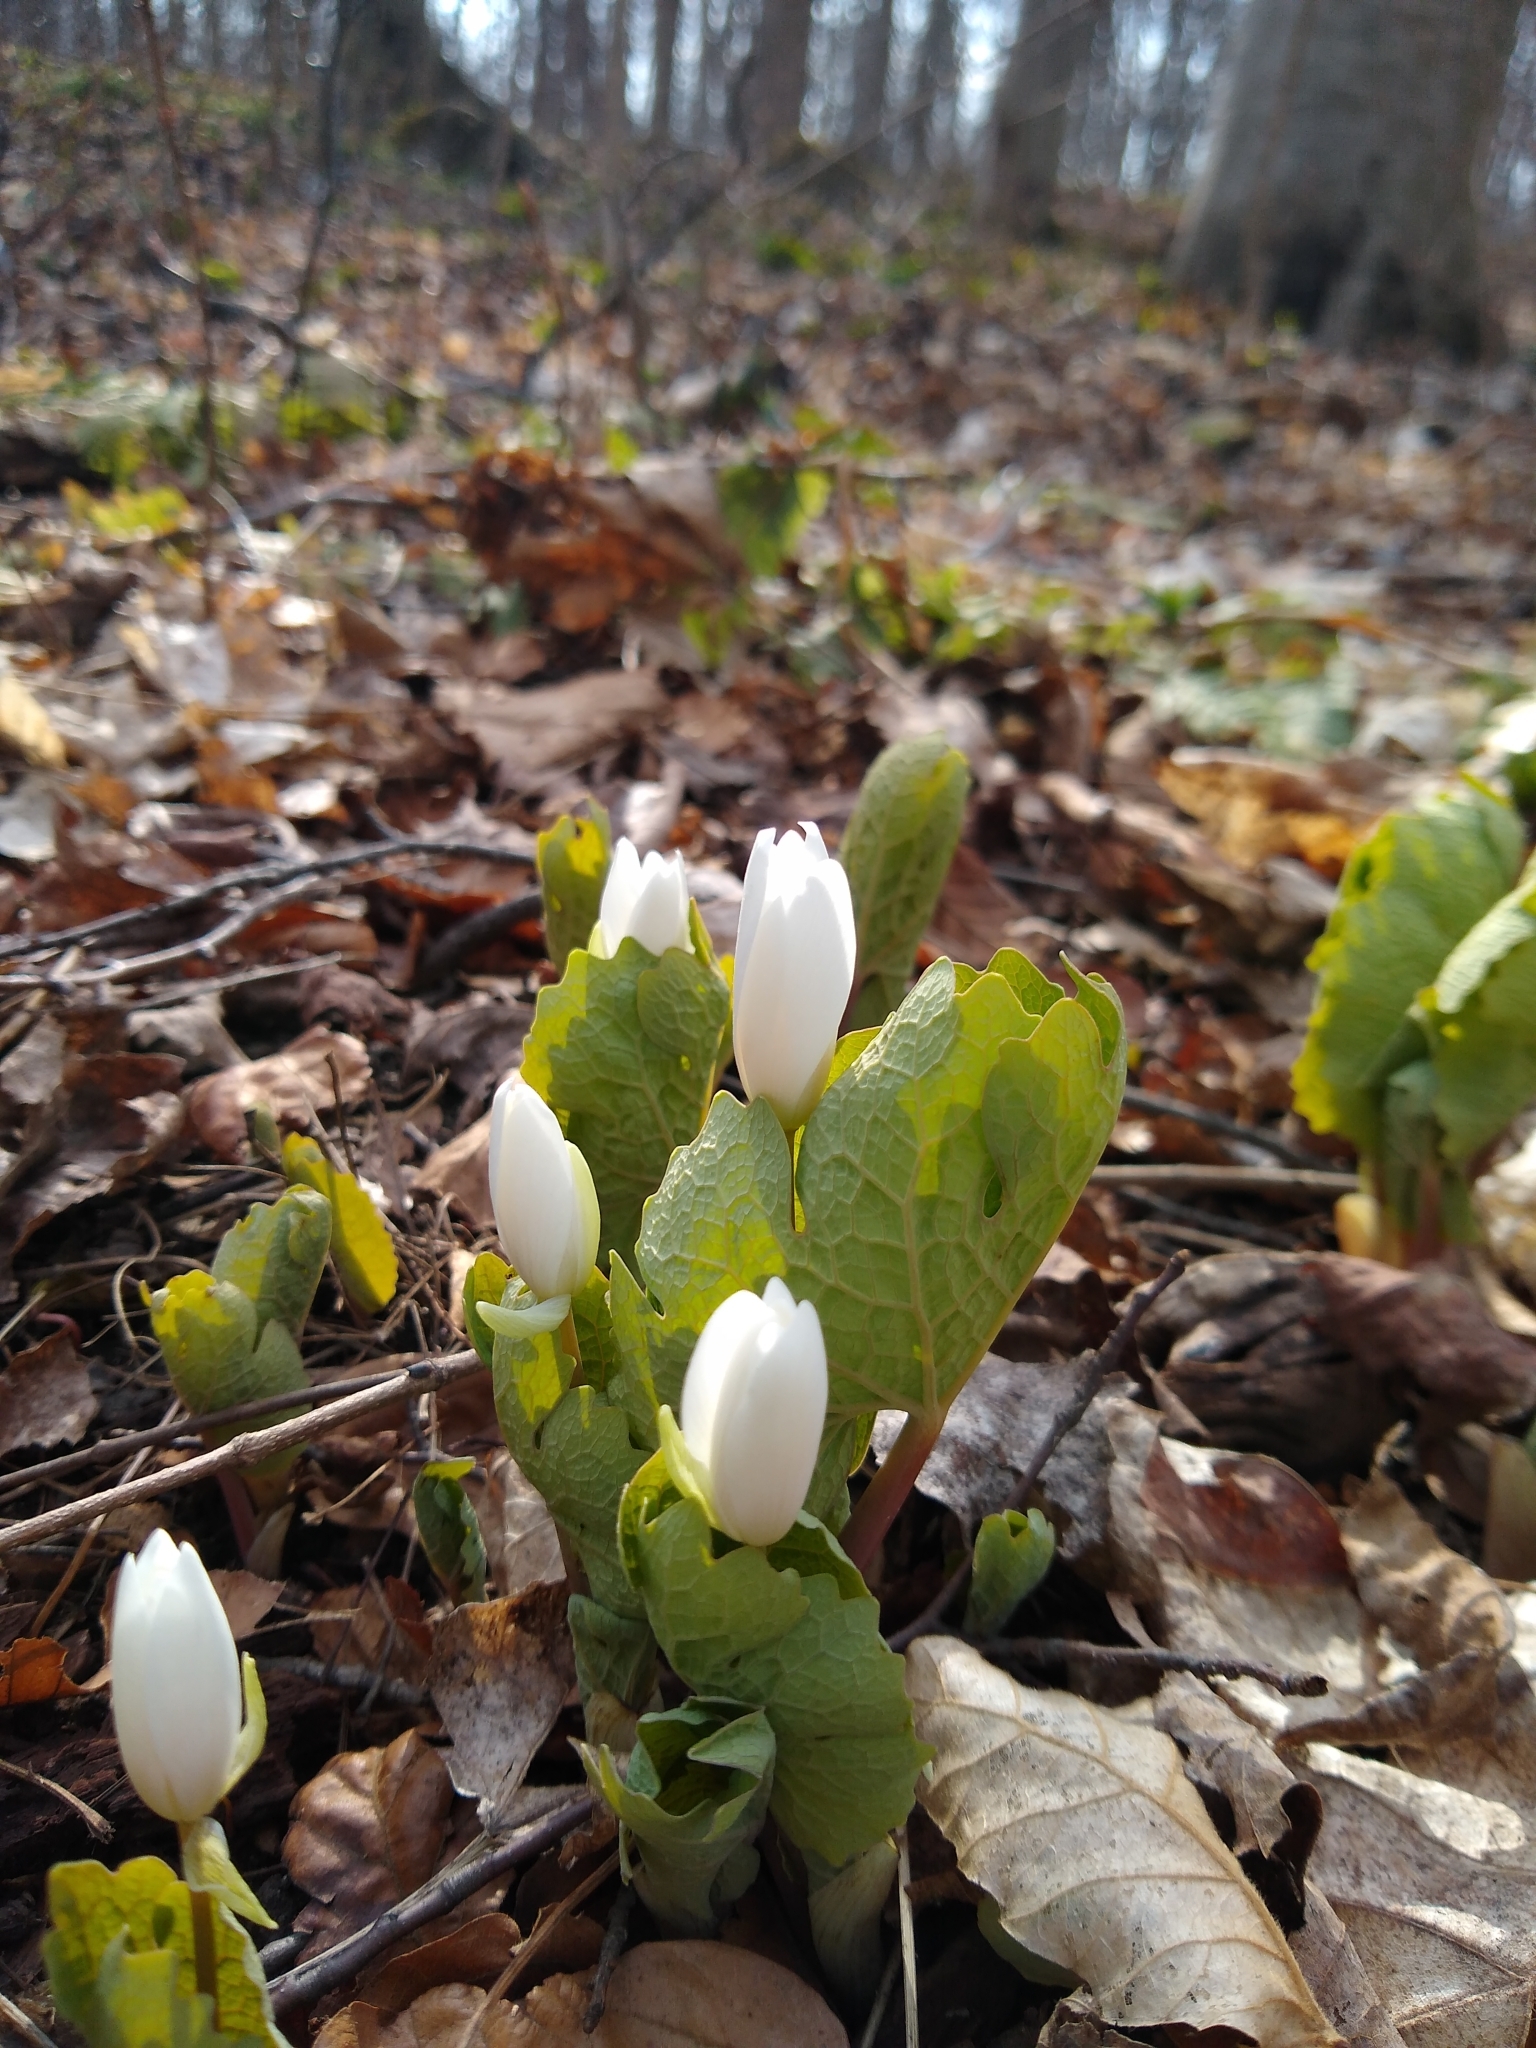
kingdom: Plantae
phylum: Tracheophyta
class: Magnoliopsida
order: Ranunculales
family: Papaveraceae
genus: Sanguinaria
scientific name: Sanguinaria canadensis
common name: Bloodroot
